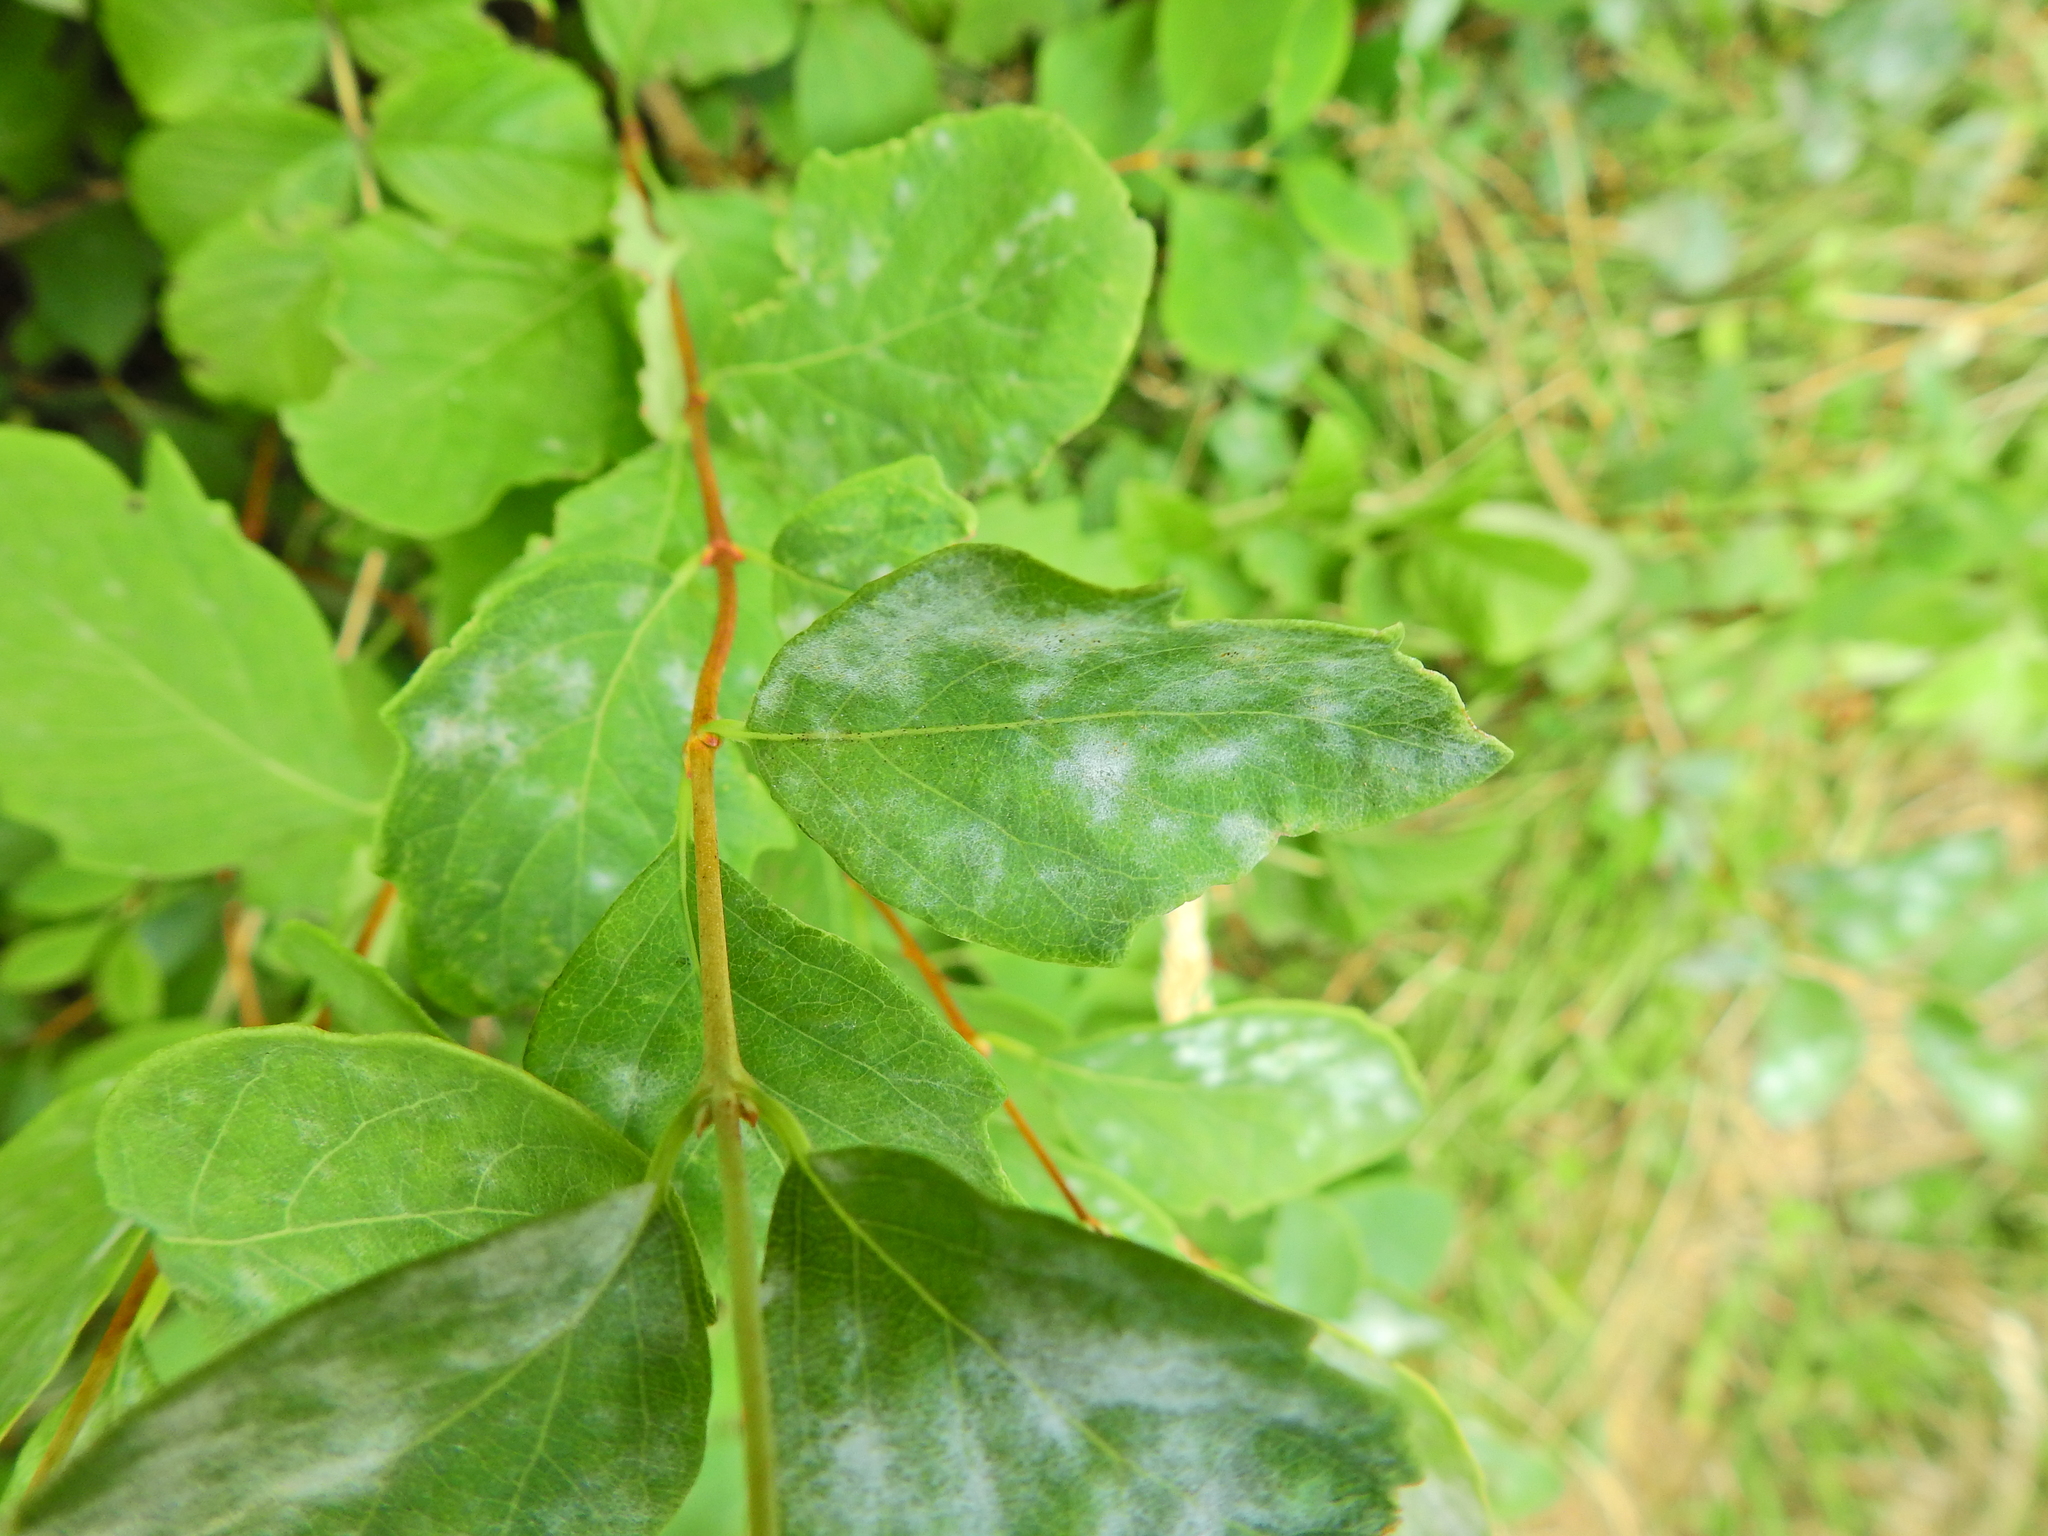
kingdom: Fungi
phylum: Ascomycota
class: Leotiomycetes
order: Helotiales
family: Erysiphaceae
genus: Erysiphe
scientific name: Erysiphe symphoricarpi
